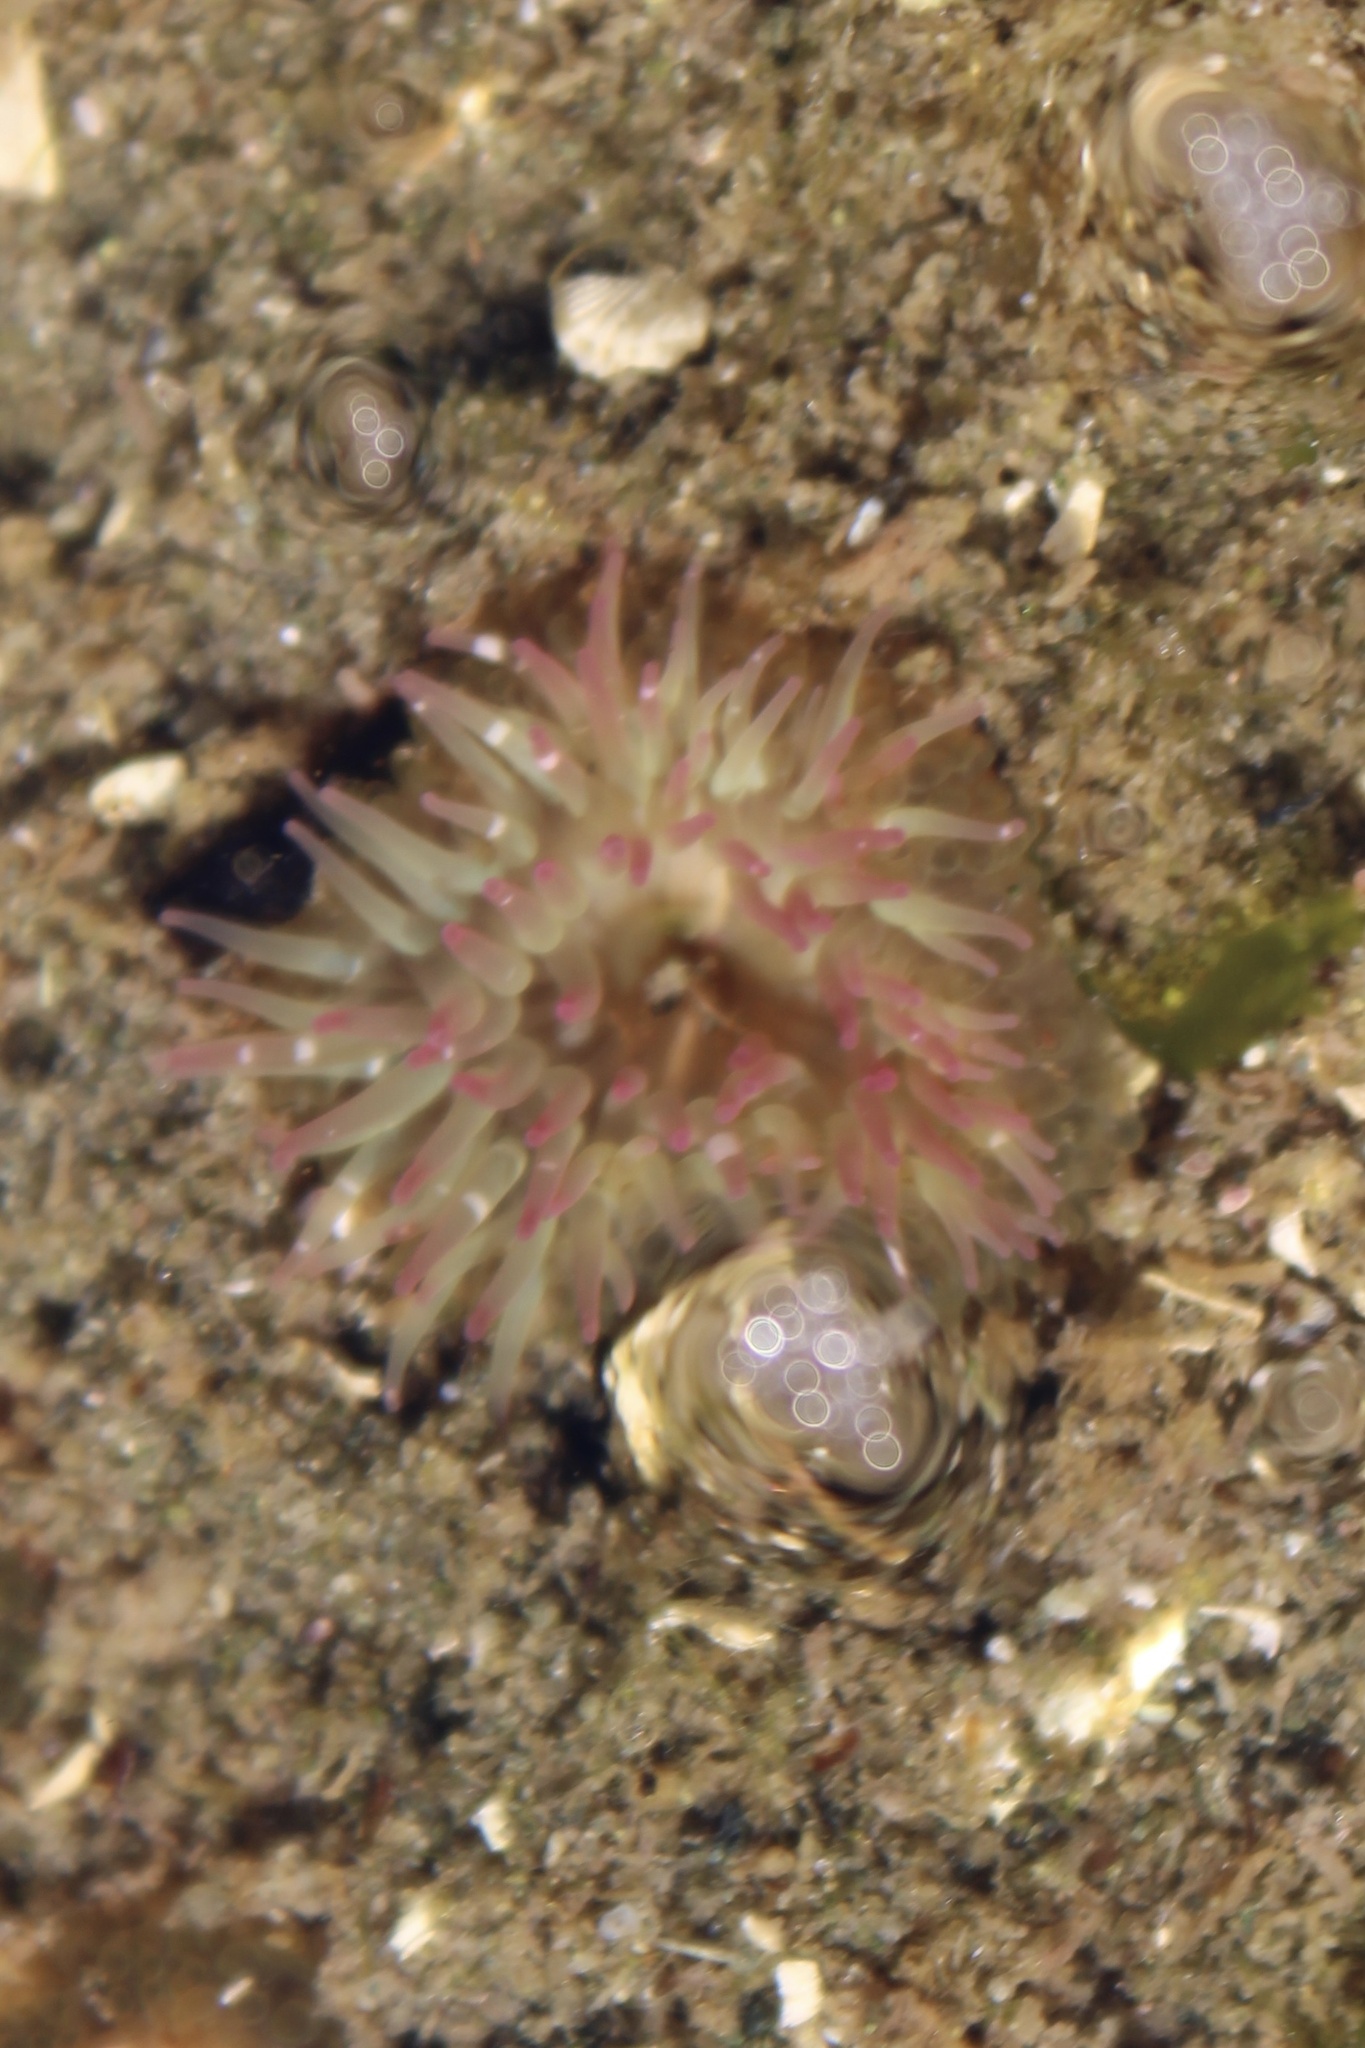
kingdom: Animalia
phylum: Cnidaria
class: Anthozoa
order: Actiniaria
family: Actiniidae
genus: Anthopleura
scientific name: Anthopleura elegantissima
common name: Clonal anemone
